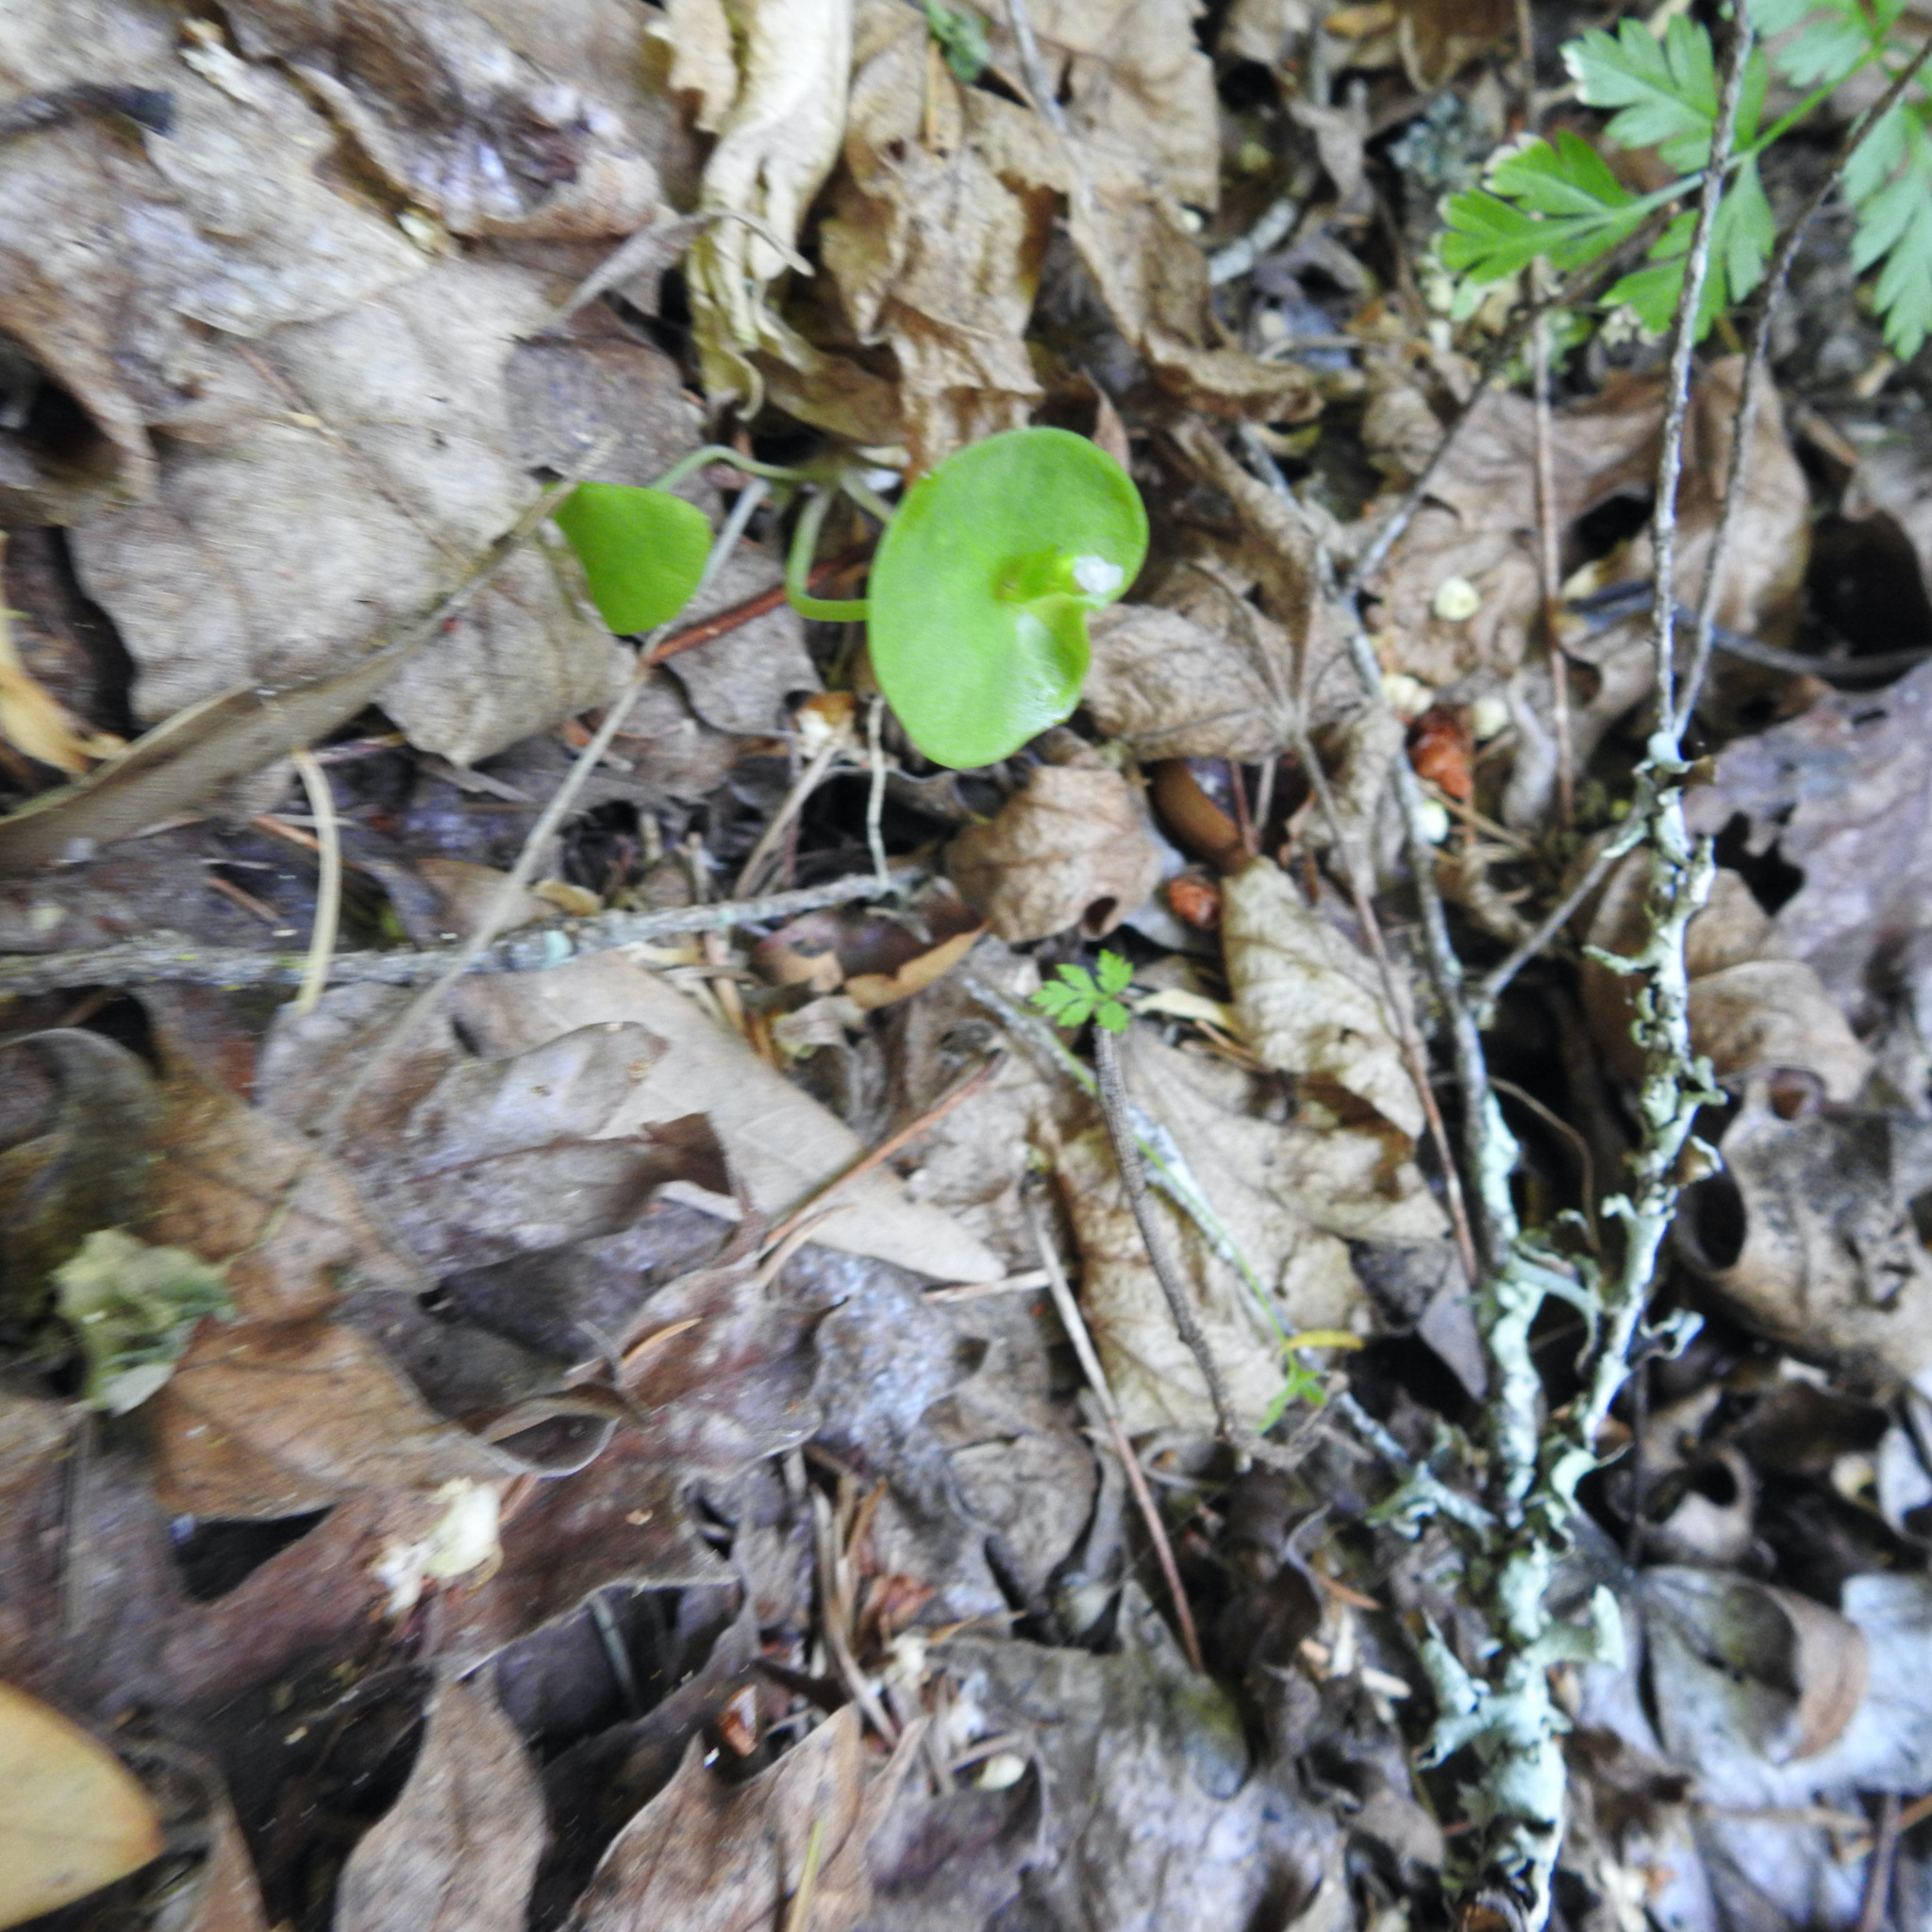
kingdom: Plantae
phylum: Tracheophyta
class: Magnoliopsida
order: Caryophyllales
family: Montiaceae
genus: Claytonia
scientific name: Claytonia perfoliata
